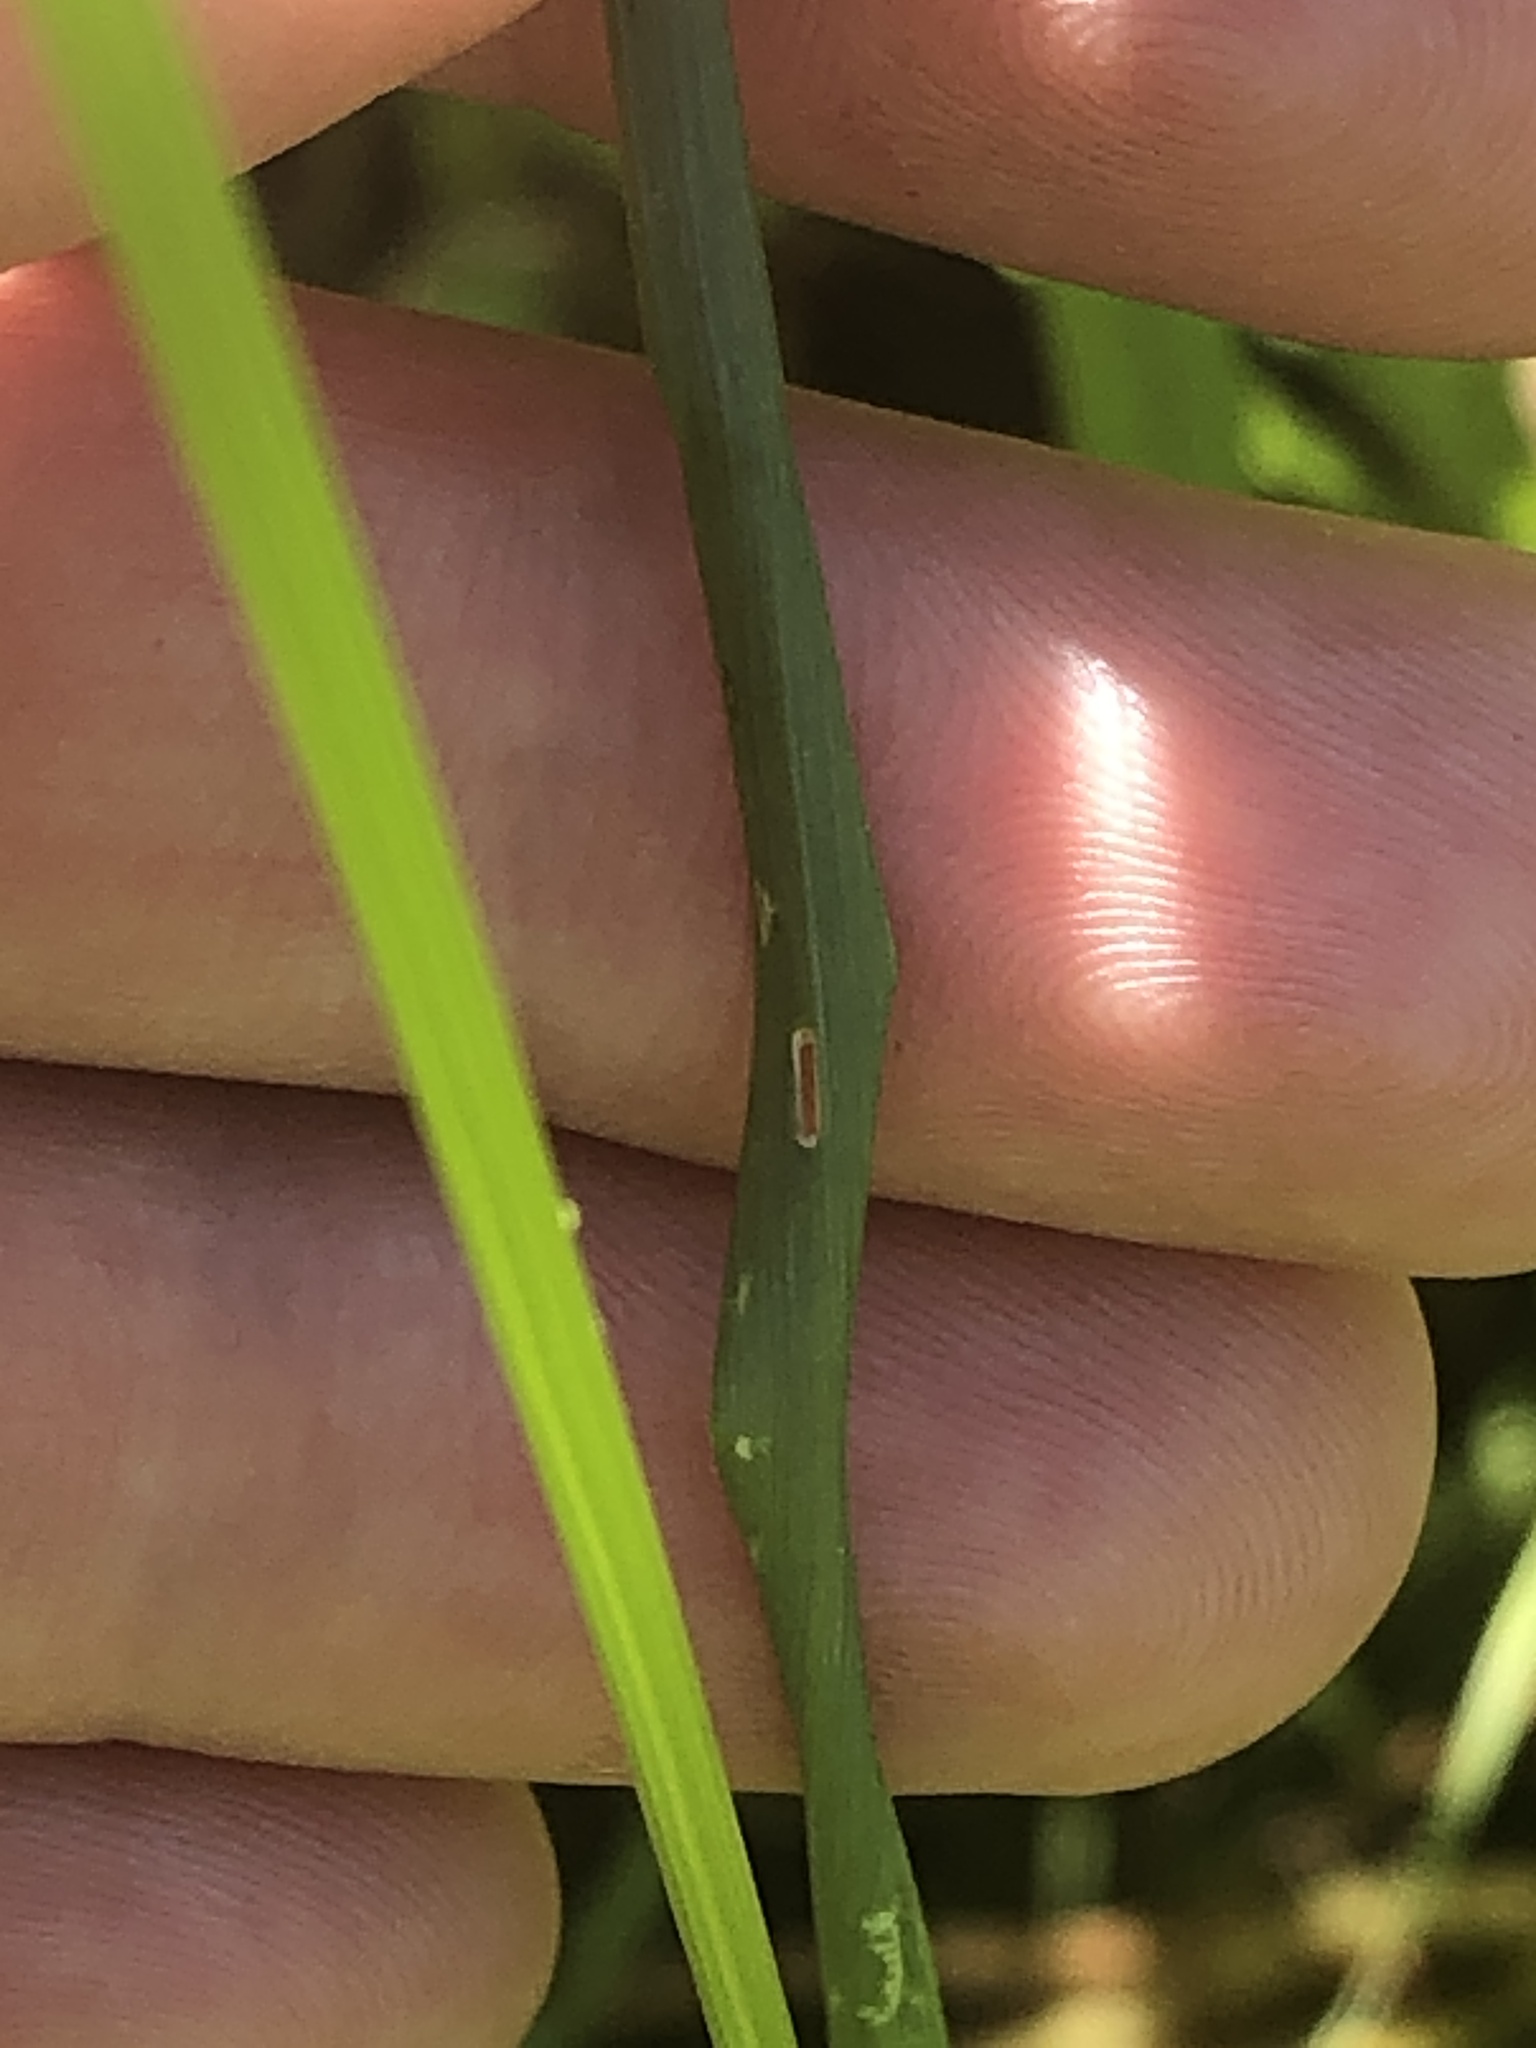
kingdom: Plantae
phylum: Tracheophyta
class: Liliopsida
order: Poales
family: Poaceae
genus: Lolium
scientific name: Lolium perenne
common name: Perennial ryegrass
